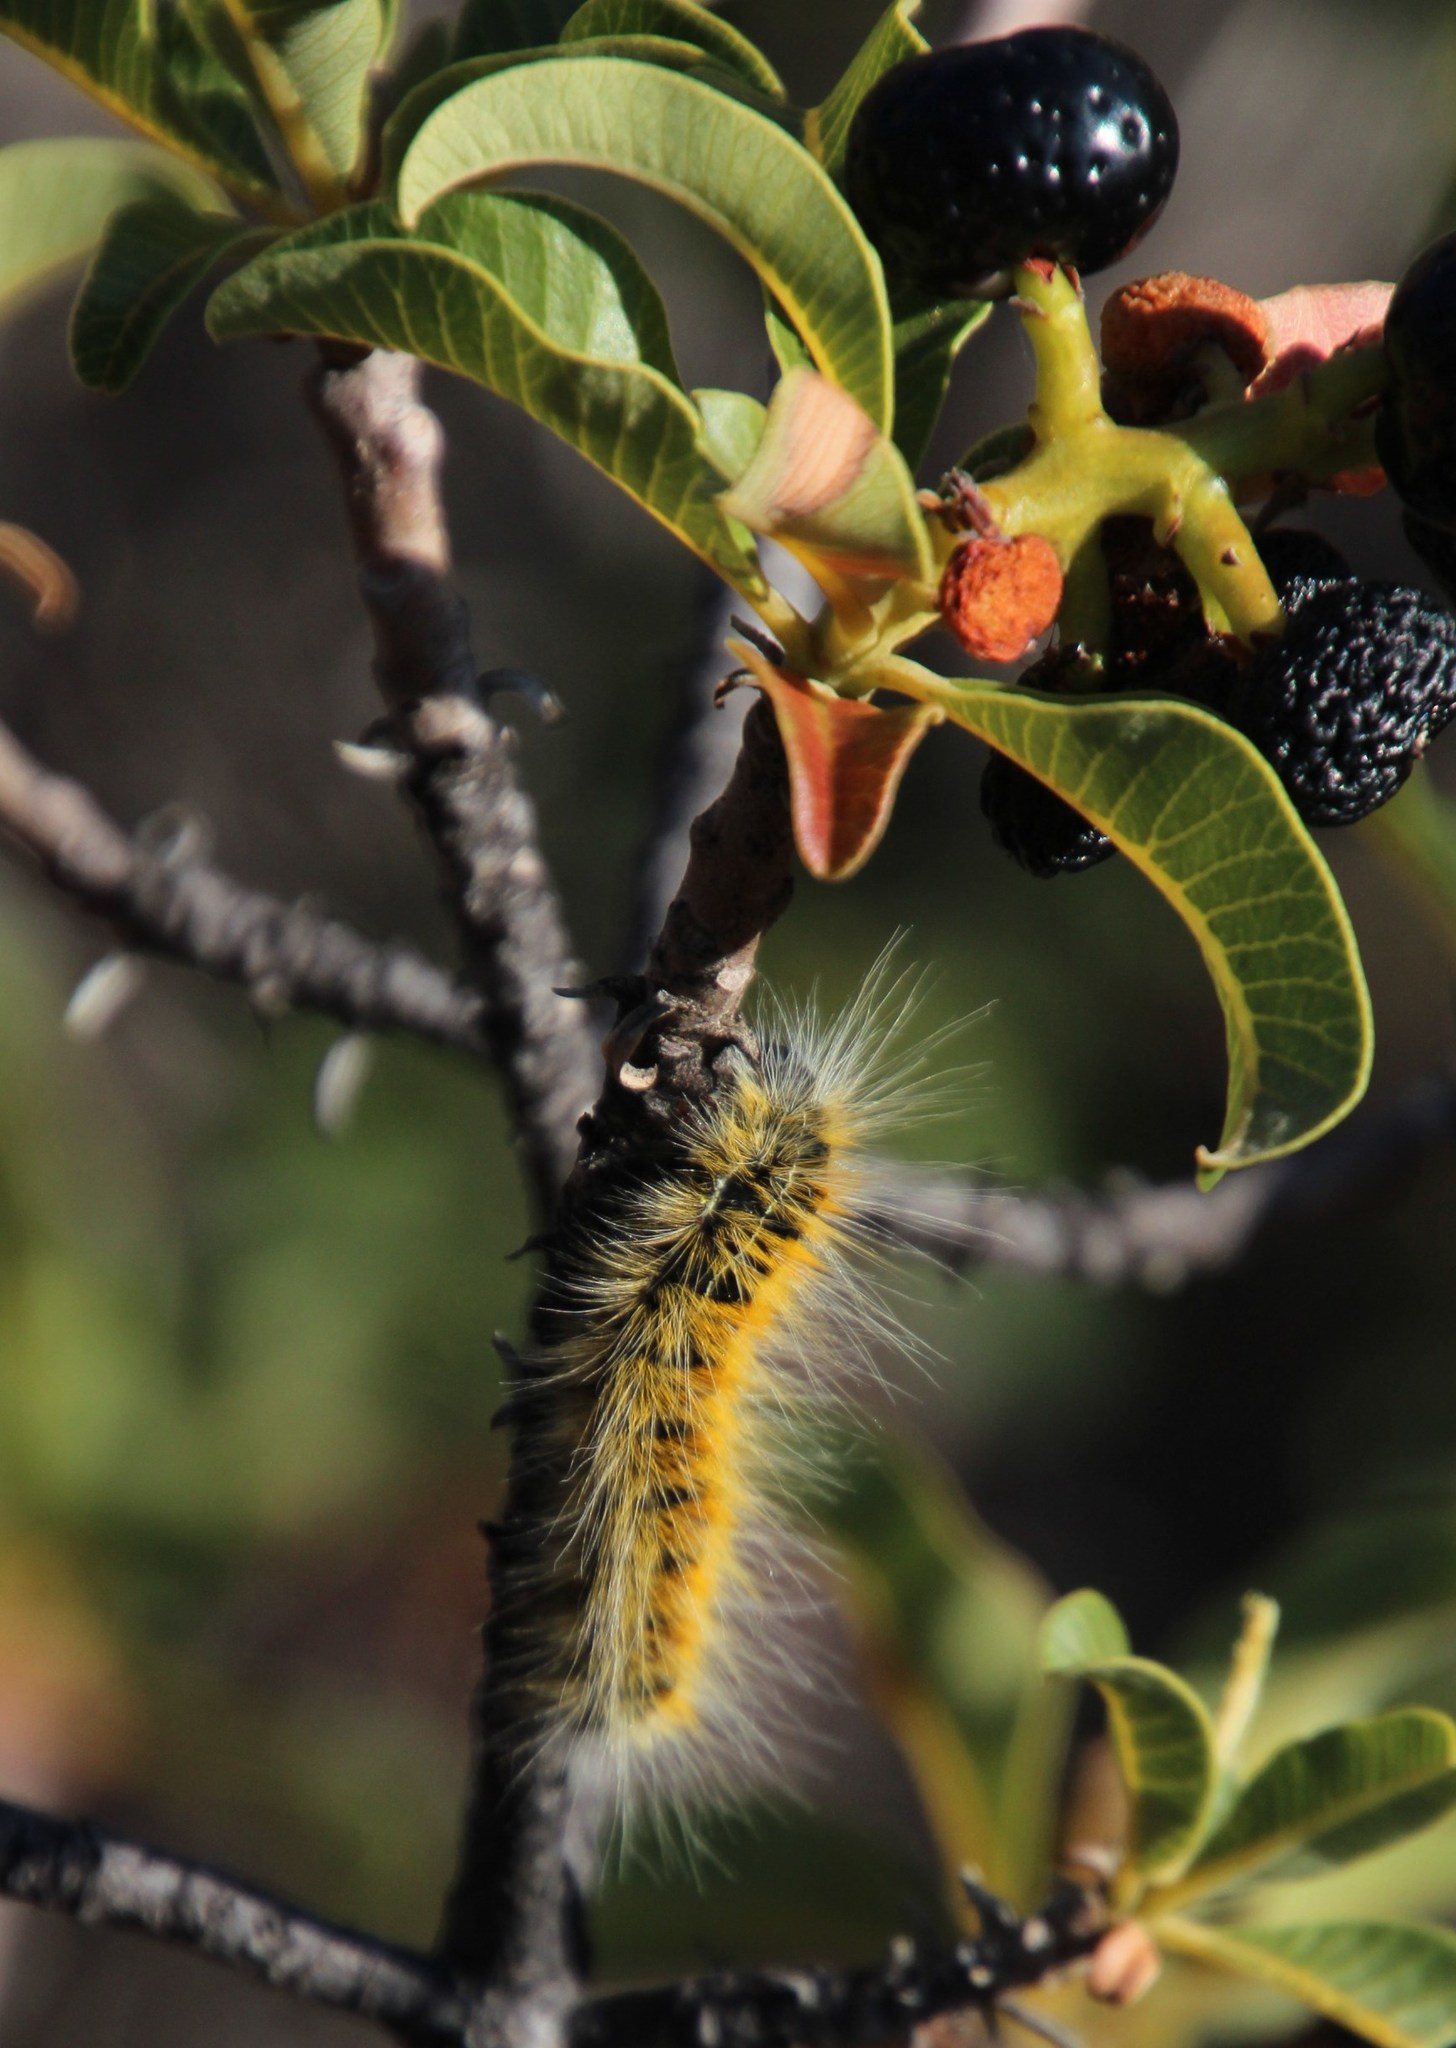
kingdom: Animalia
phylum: Arthropoda
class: Insecta
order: Lepidoptera
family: Lasiocampidae
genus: Bombycomorpha
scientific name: Bombycomorpha dukei
